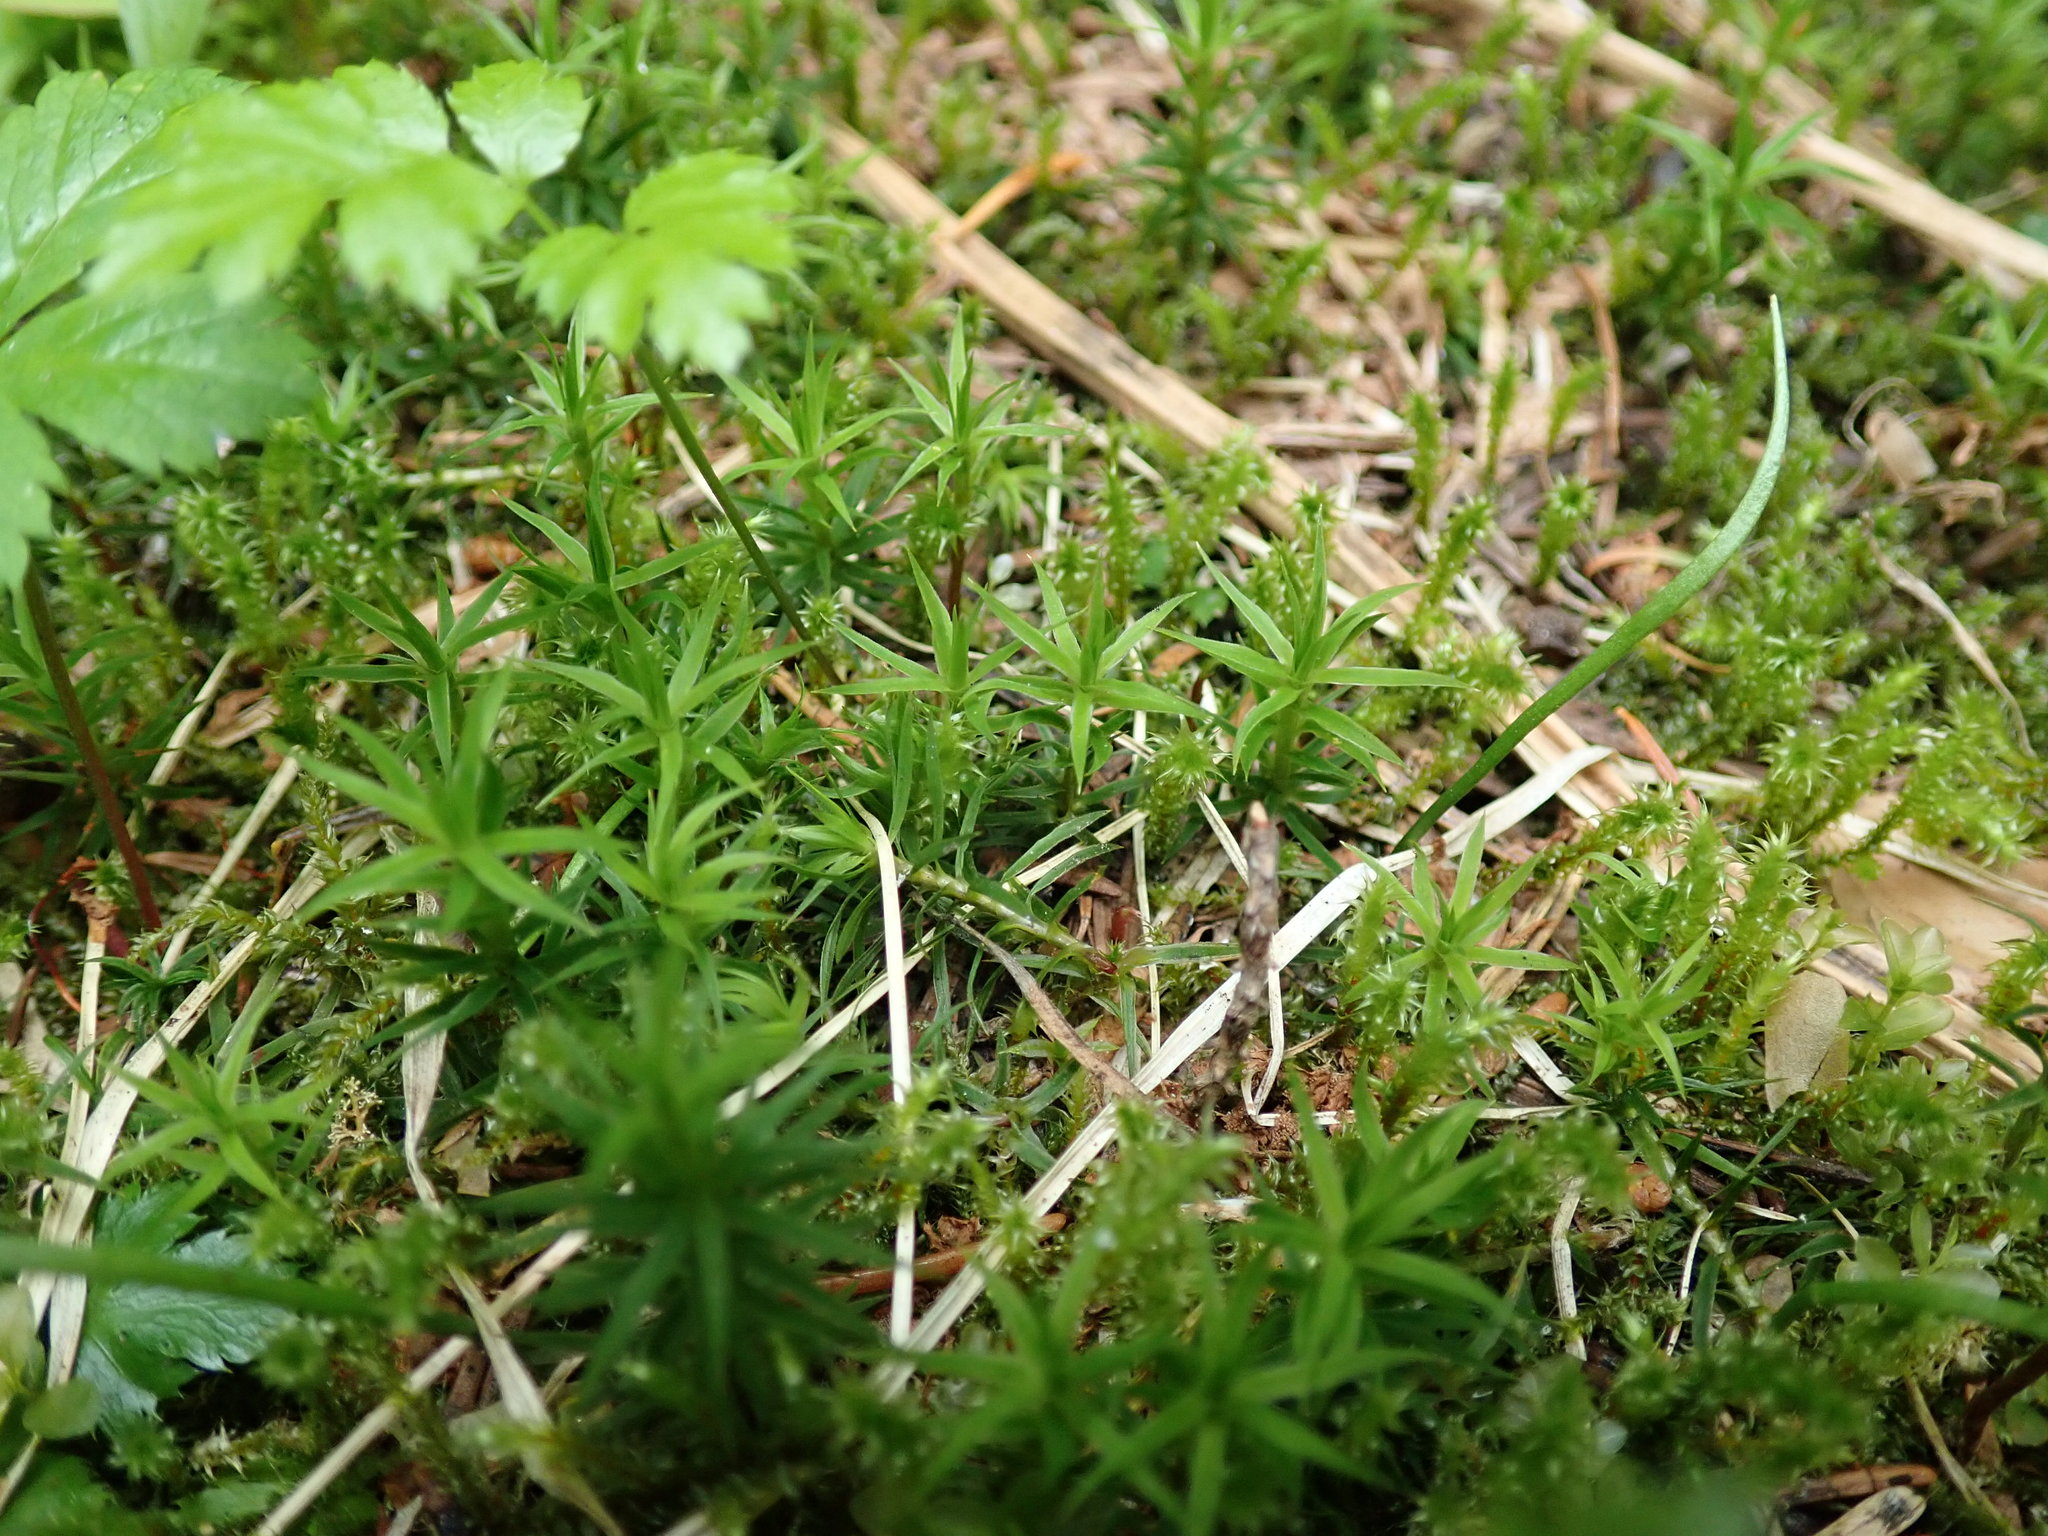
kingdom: Plantae
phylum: Bryophyta
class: Polytrichopsida
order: Polytrichales
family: Polytrichaceae
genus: Polytrichastrum
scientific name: Polytrichastrum alpinum
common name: Alpine haircap
